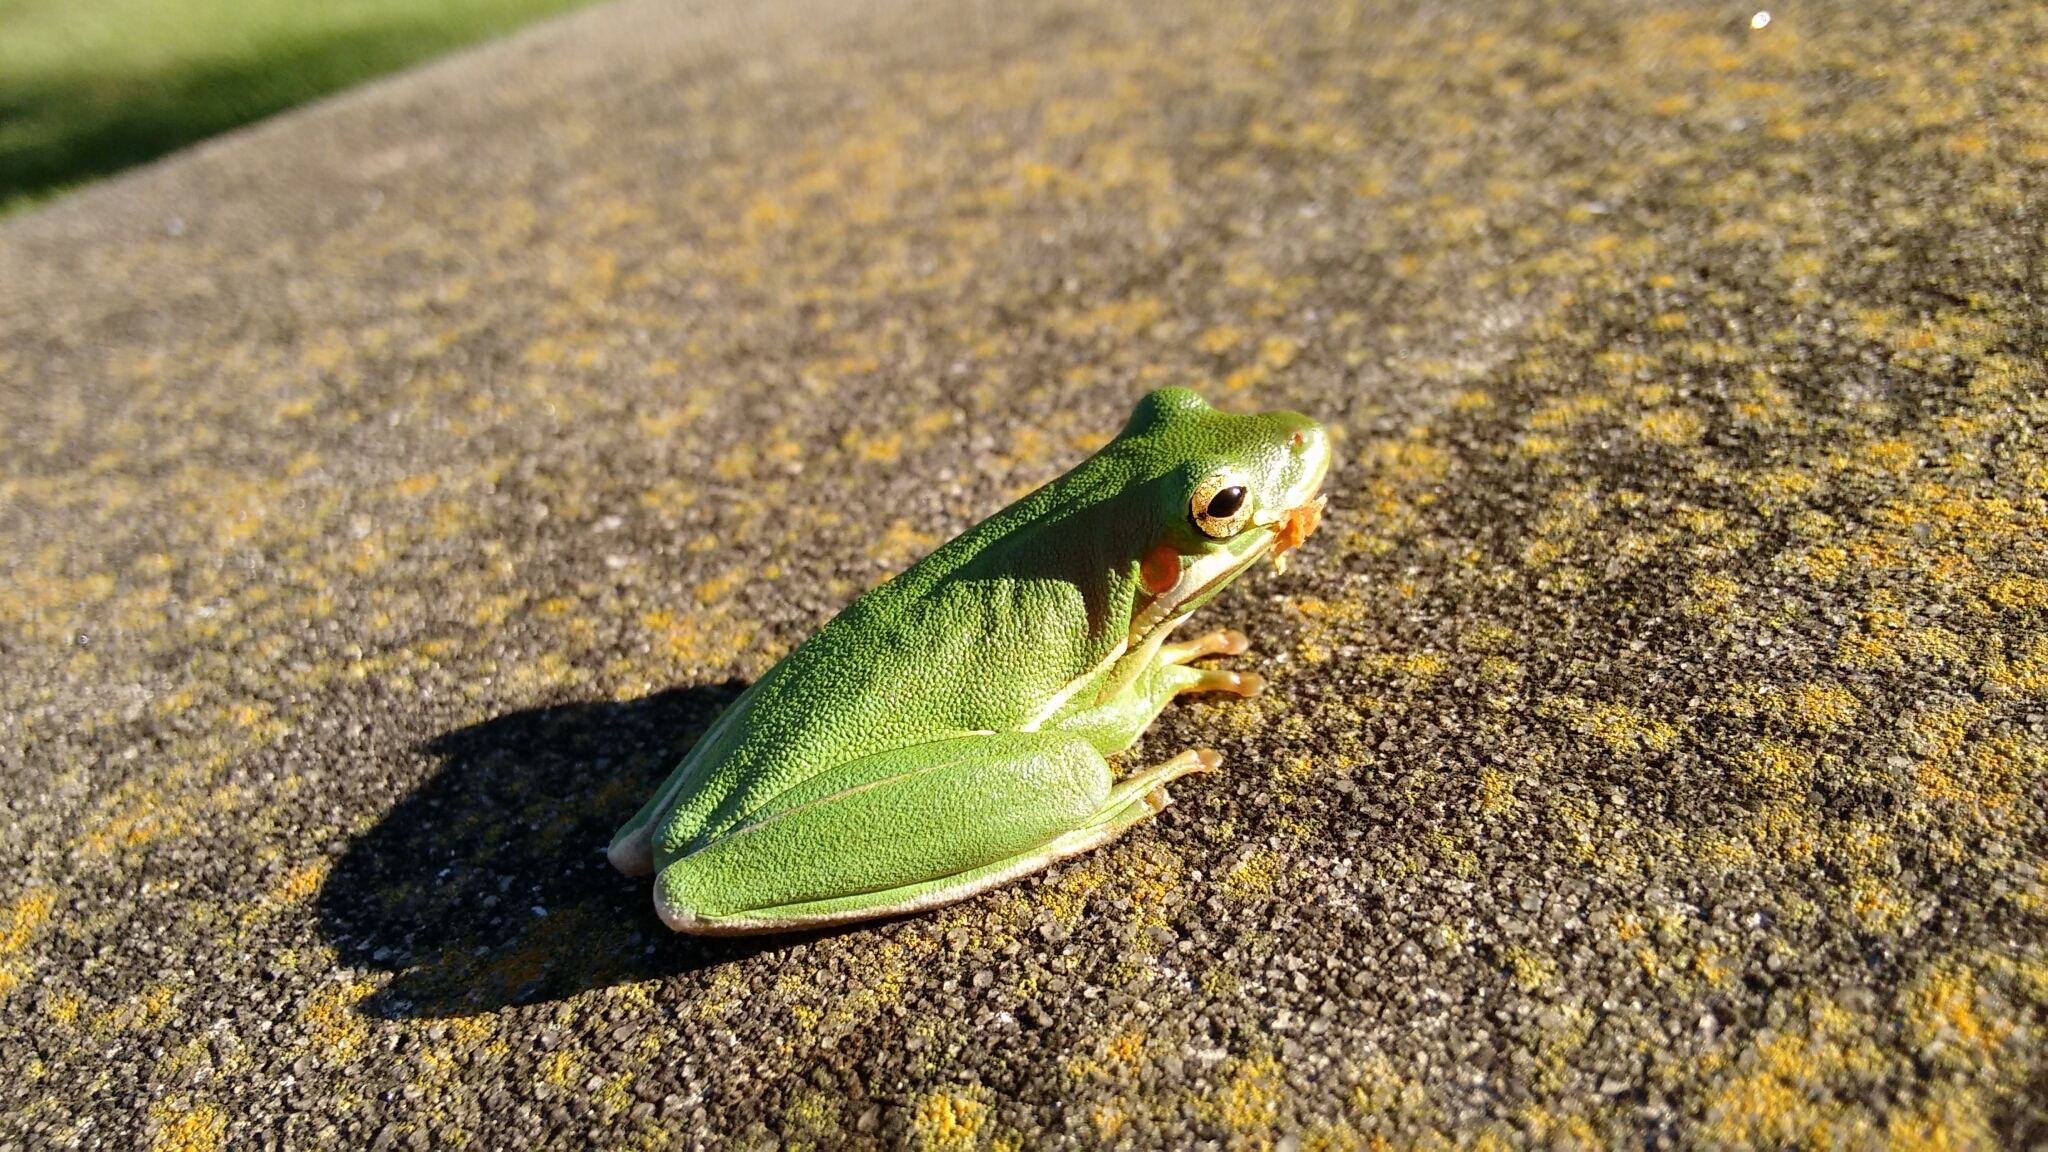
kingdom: Animalia
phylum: Chordata
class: Amphibia
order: Anura
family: Hylidae
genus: Dryophytes
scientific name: Dryophytes cinereus
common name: Green treefrog
